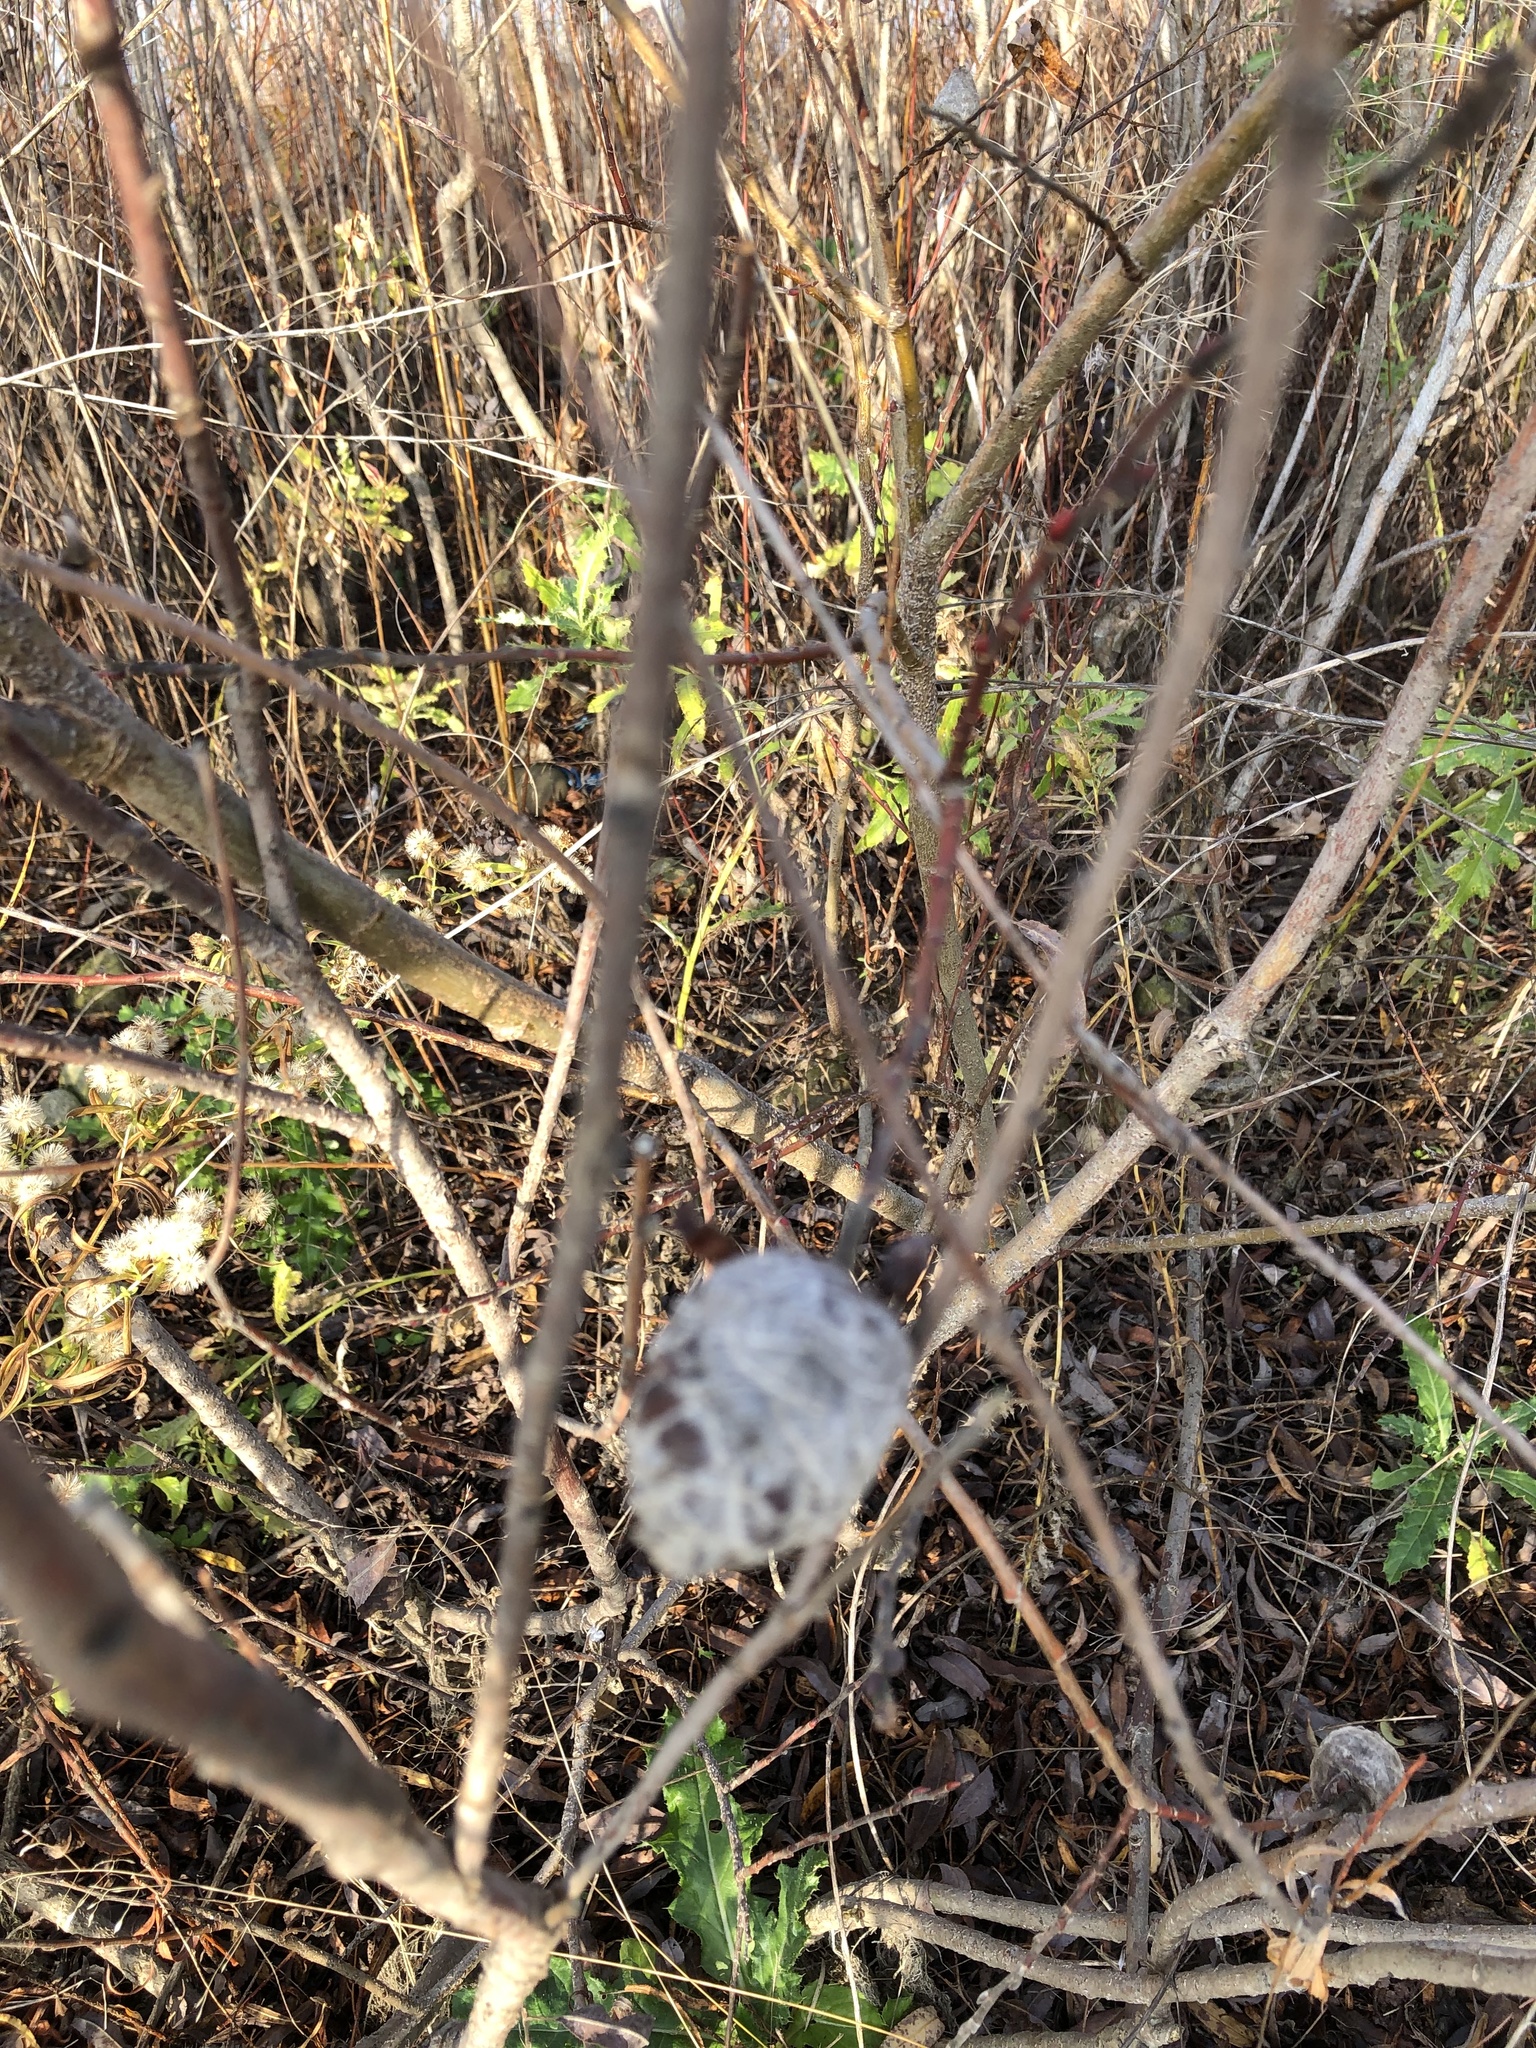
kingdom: Animalia
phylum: Arthropoda
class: Insecta
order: Diptera
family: Cecidomyiidae
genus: Rabdophaga
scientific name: Rabdophaga strobiloides
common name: Willow pinecone gall midge
